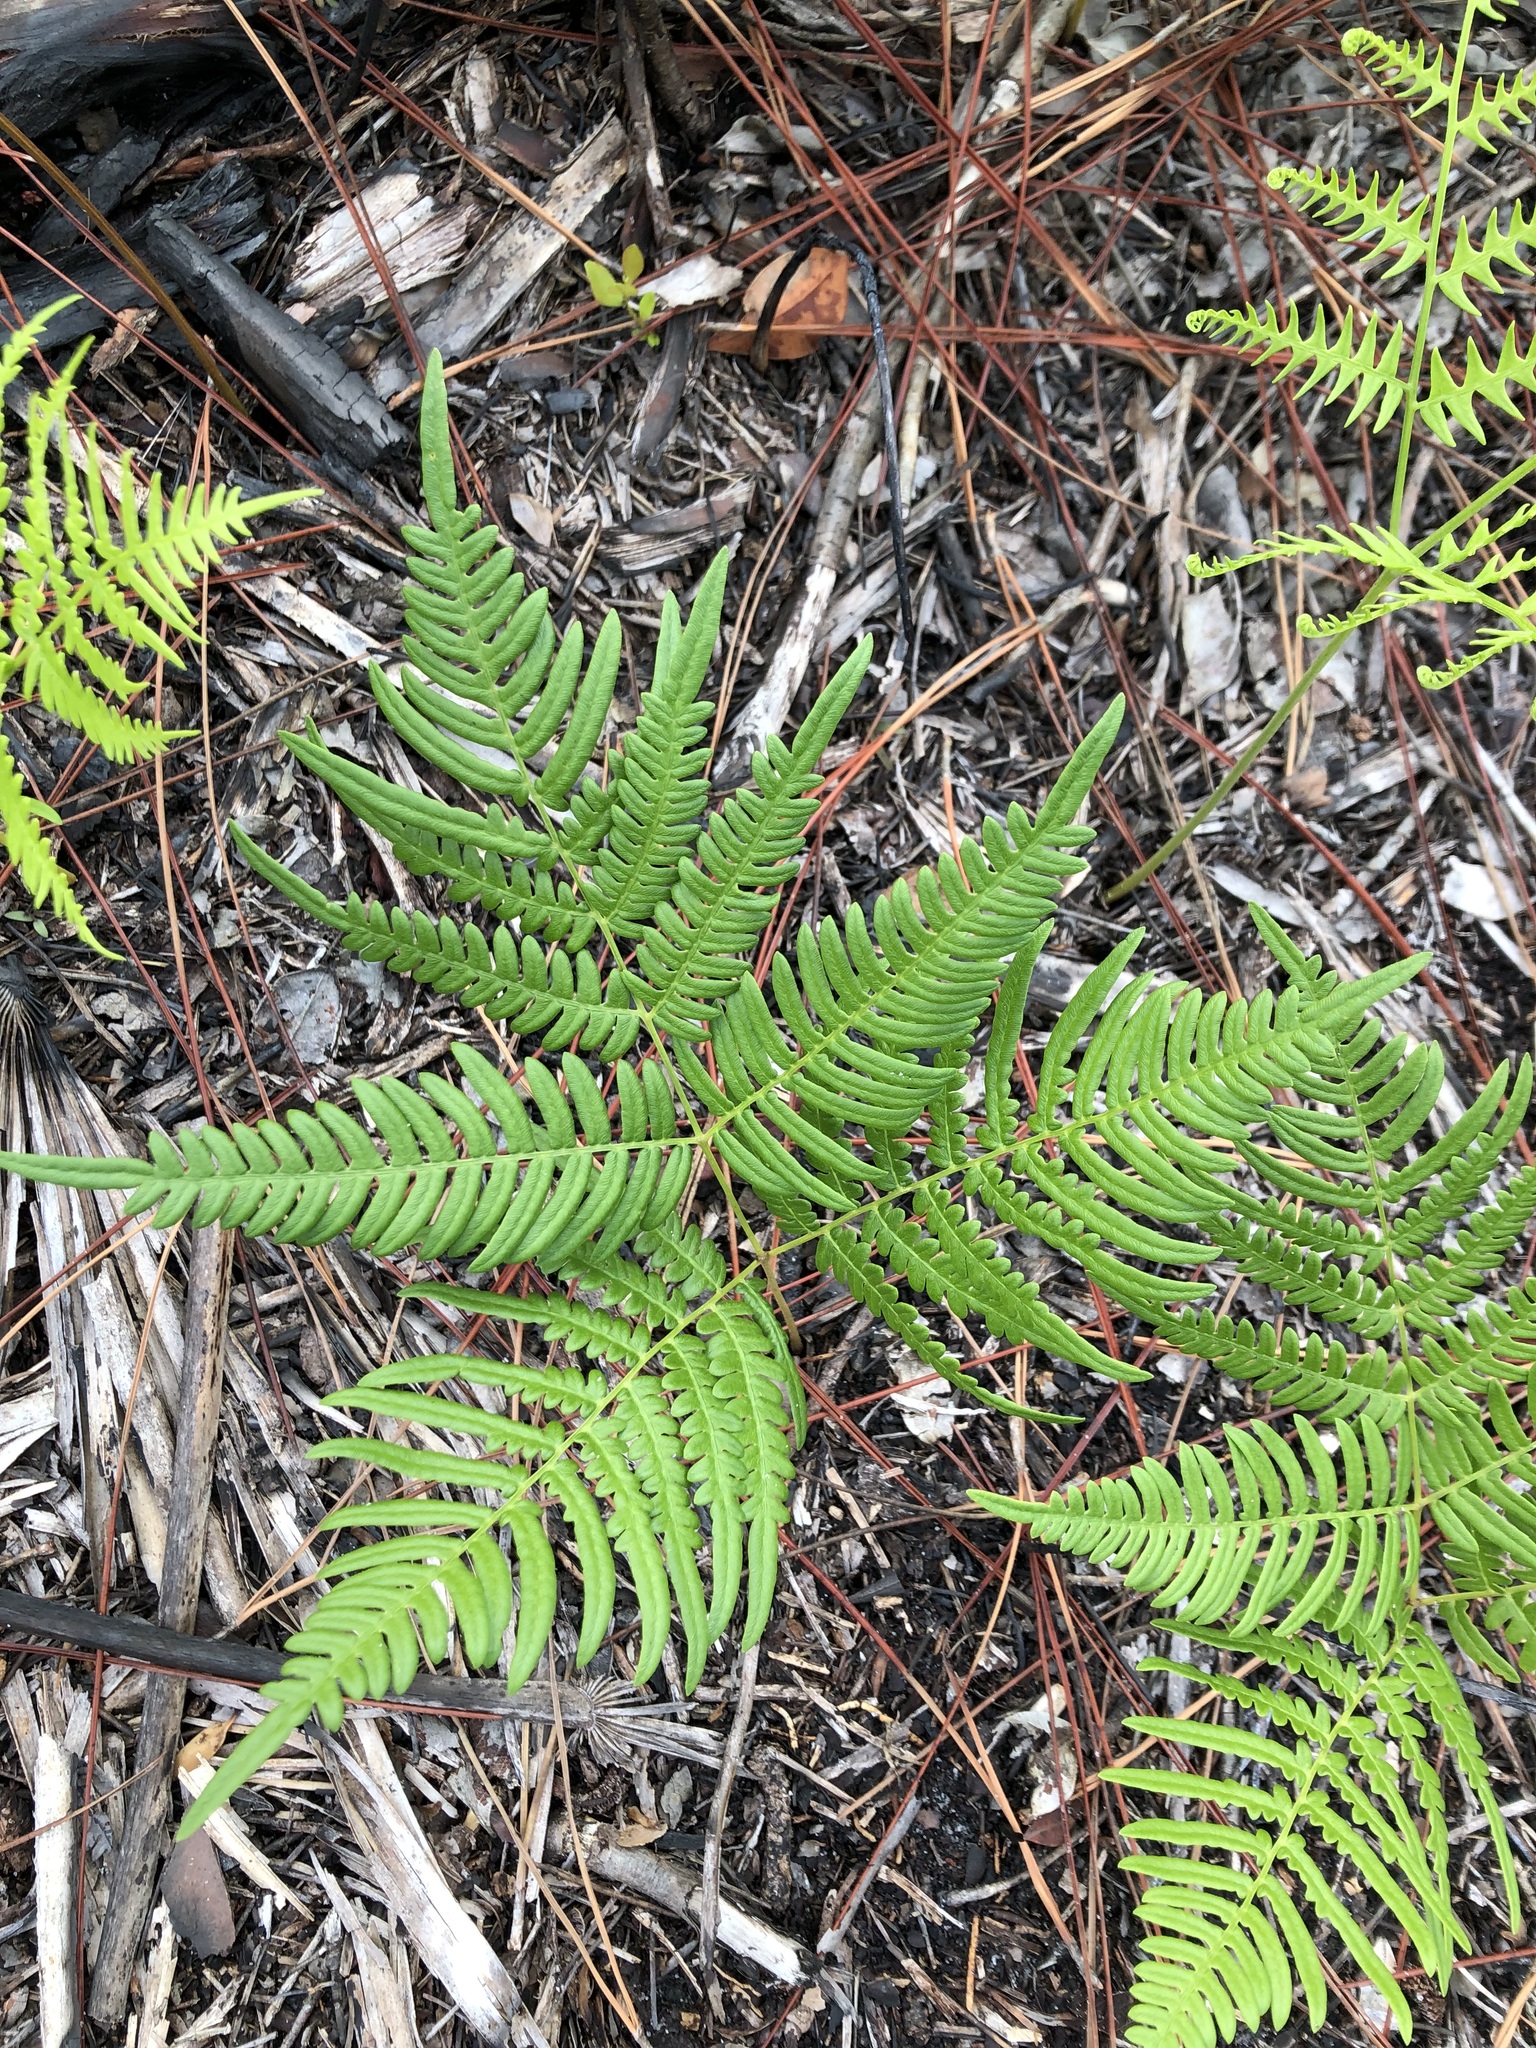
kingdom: Plantae
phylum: Tracheophyta
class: Polypodiopsida
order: Polypodiales
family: Dennstaedtiaceae
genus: Pteridium
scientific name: Pteridium caudatum
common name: Southern bracken fern
